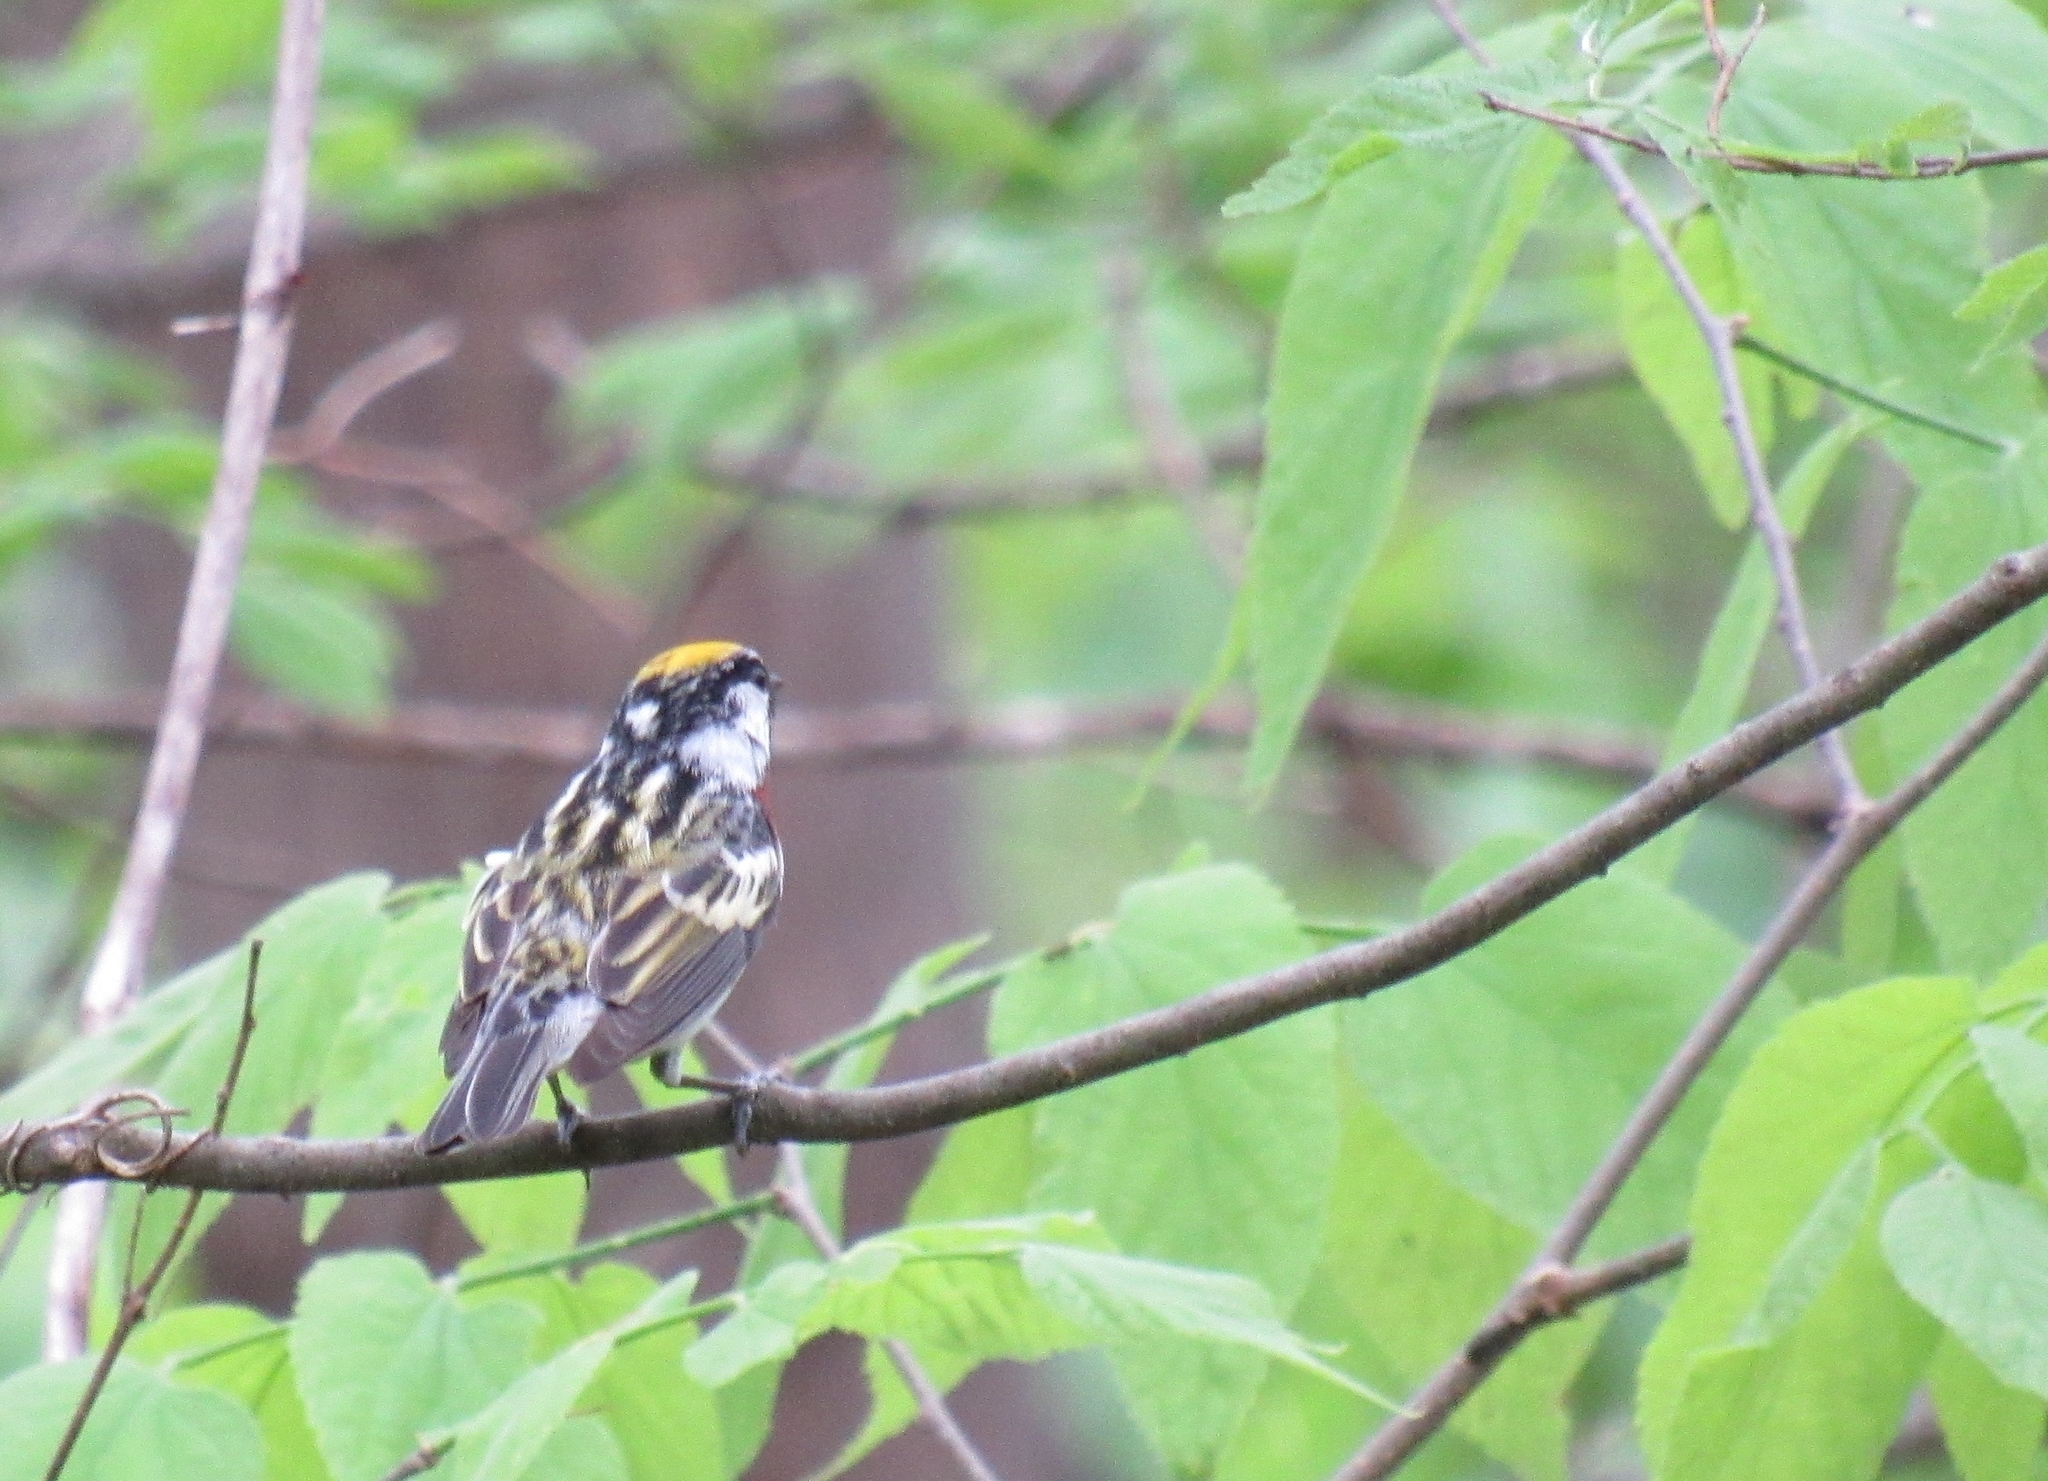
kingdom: Animalia
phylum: Chordata
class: Aves
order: Passeriformes
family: Parulidae
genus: Setophaga
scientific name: Setophaga pensylvanica
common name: Chestnut-sided warbler
